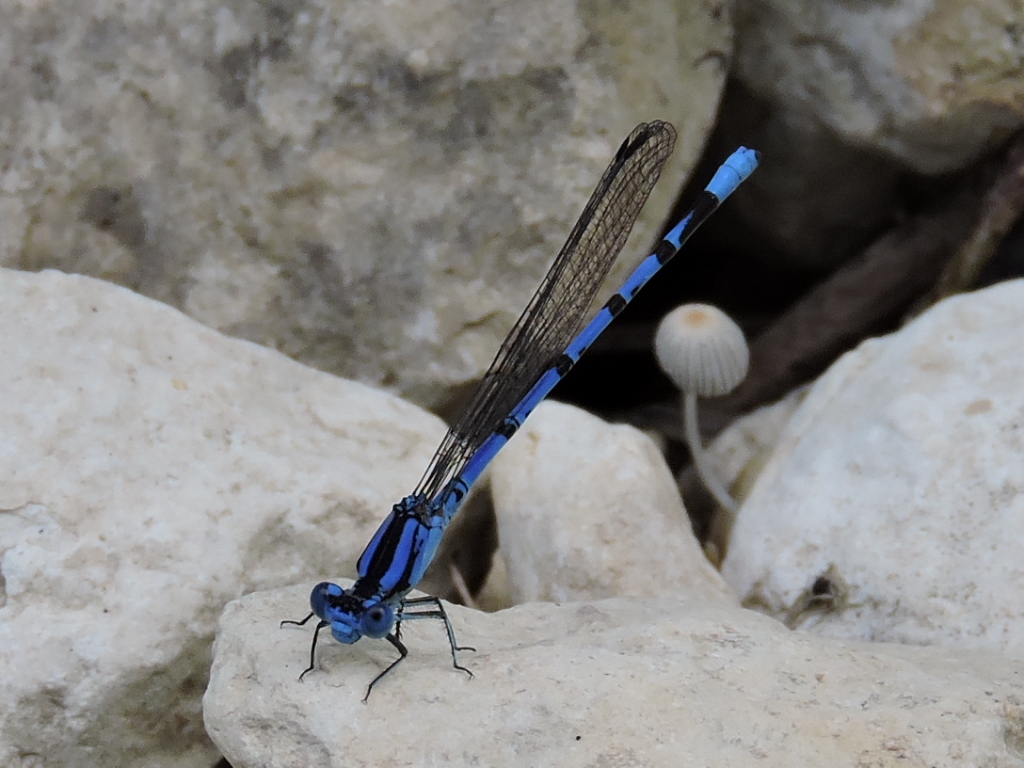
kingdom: Animalia
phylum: Arthropoda
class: Insecta
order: Odonata
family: Coenagrionidae
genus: Argia
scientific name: Argia funebris
